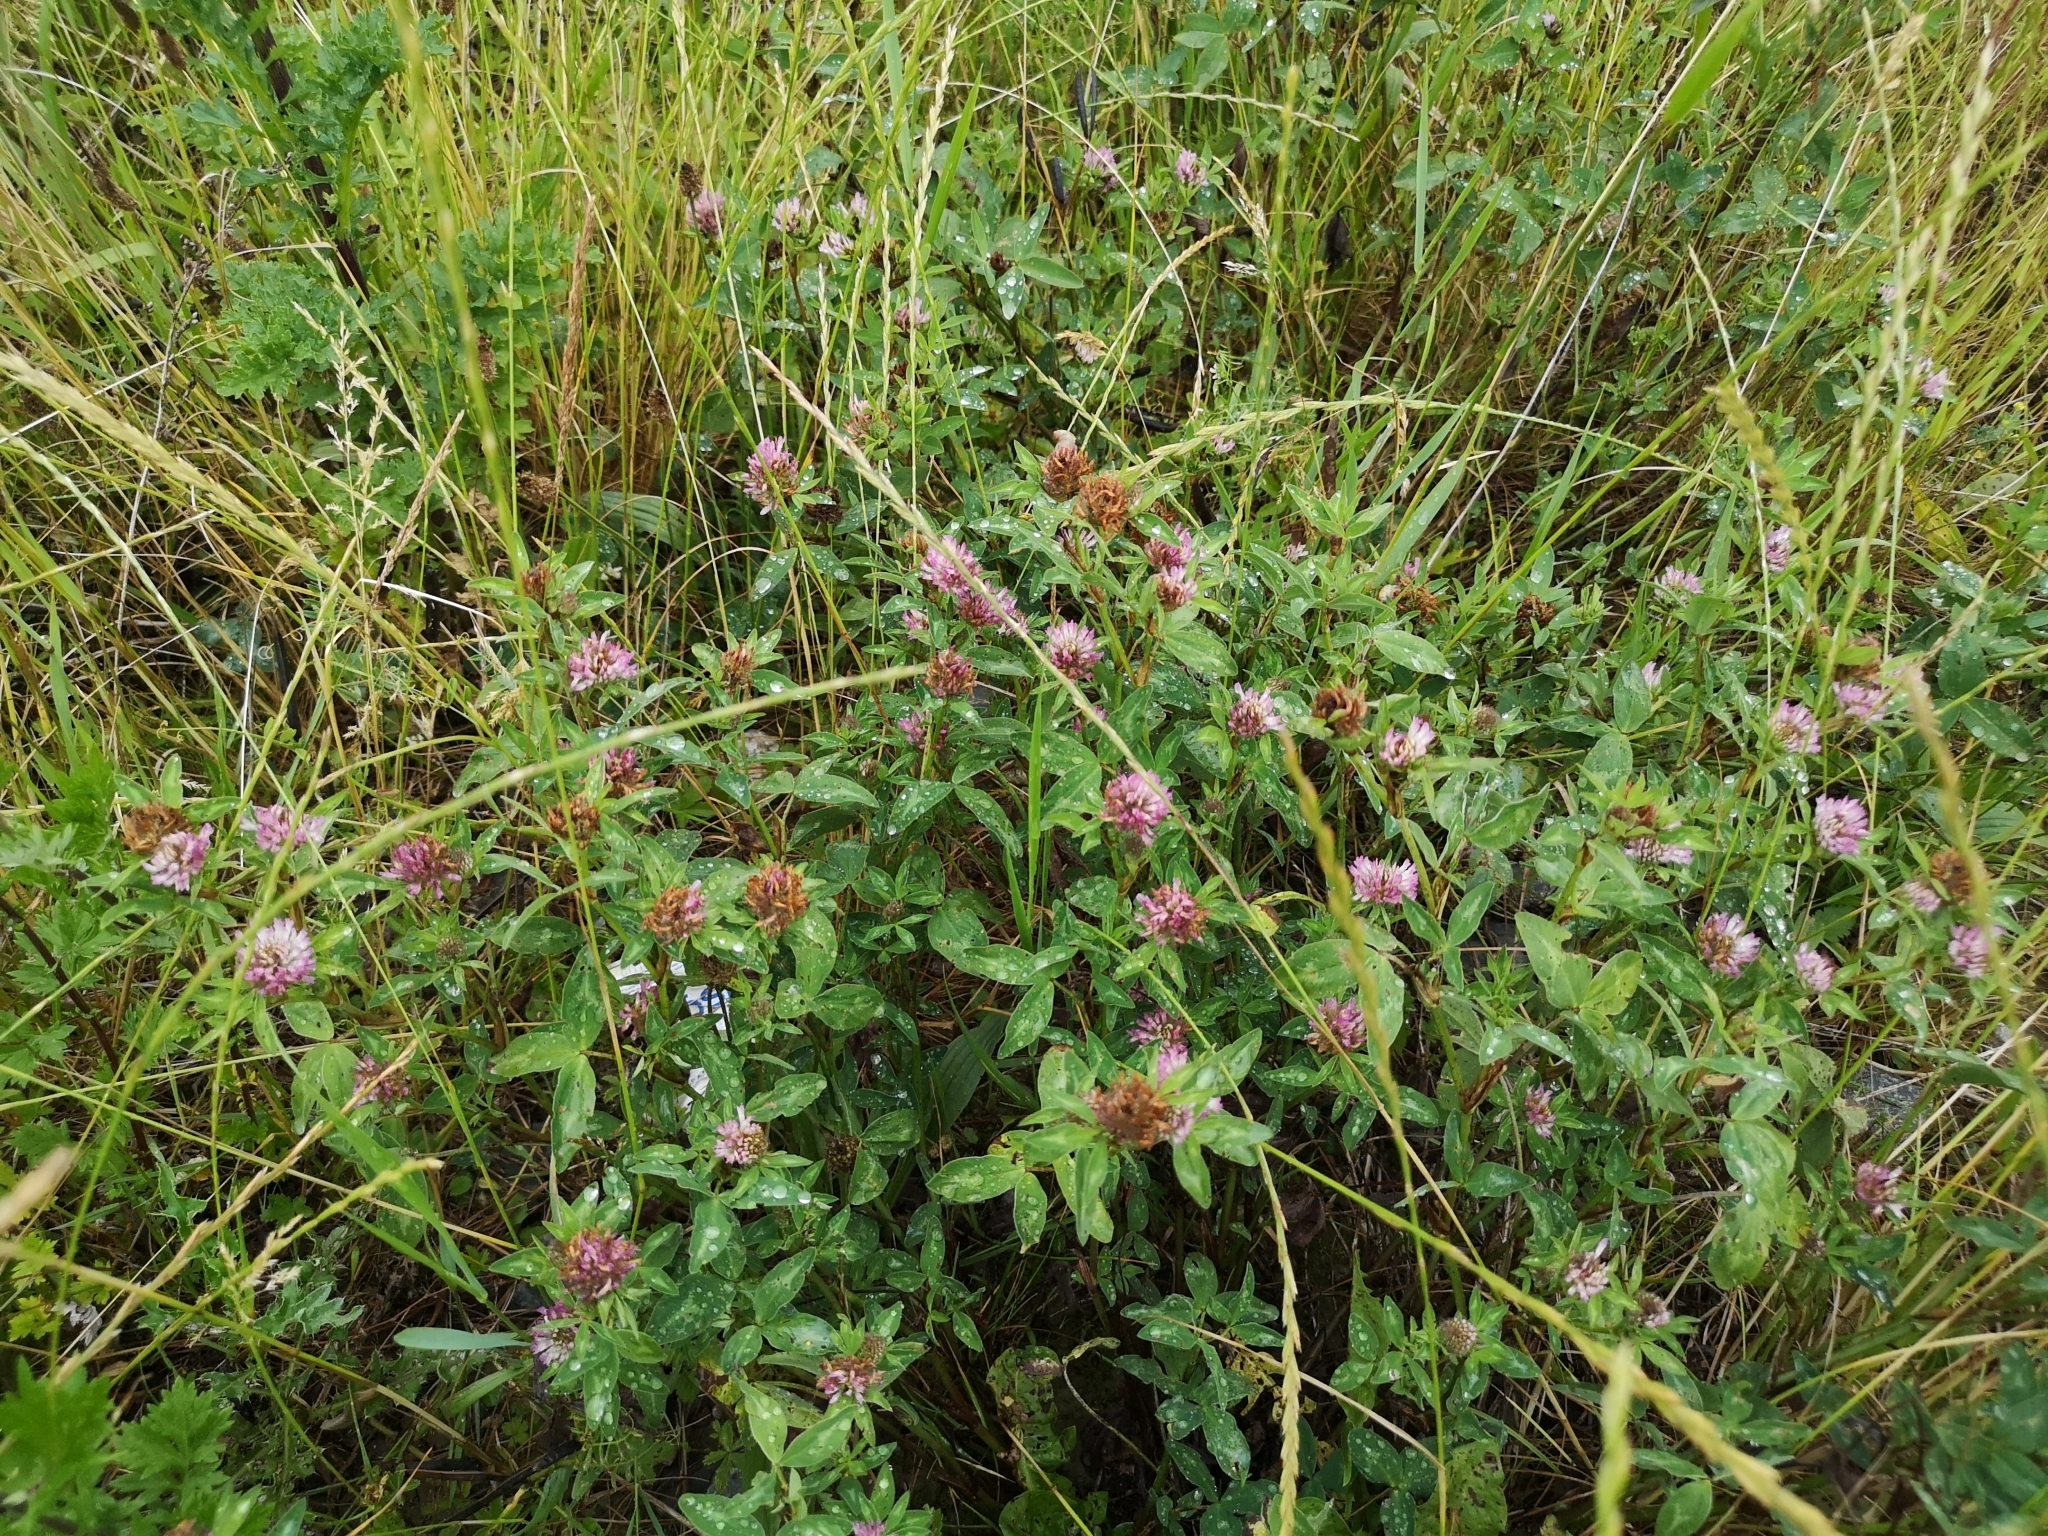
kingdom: Plantae
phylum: Tracheophyta
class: Magnoliopsida
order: Fabales
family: Fabaceae
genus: Trifolium
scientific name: Trifolium pratense
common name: Red clover
